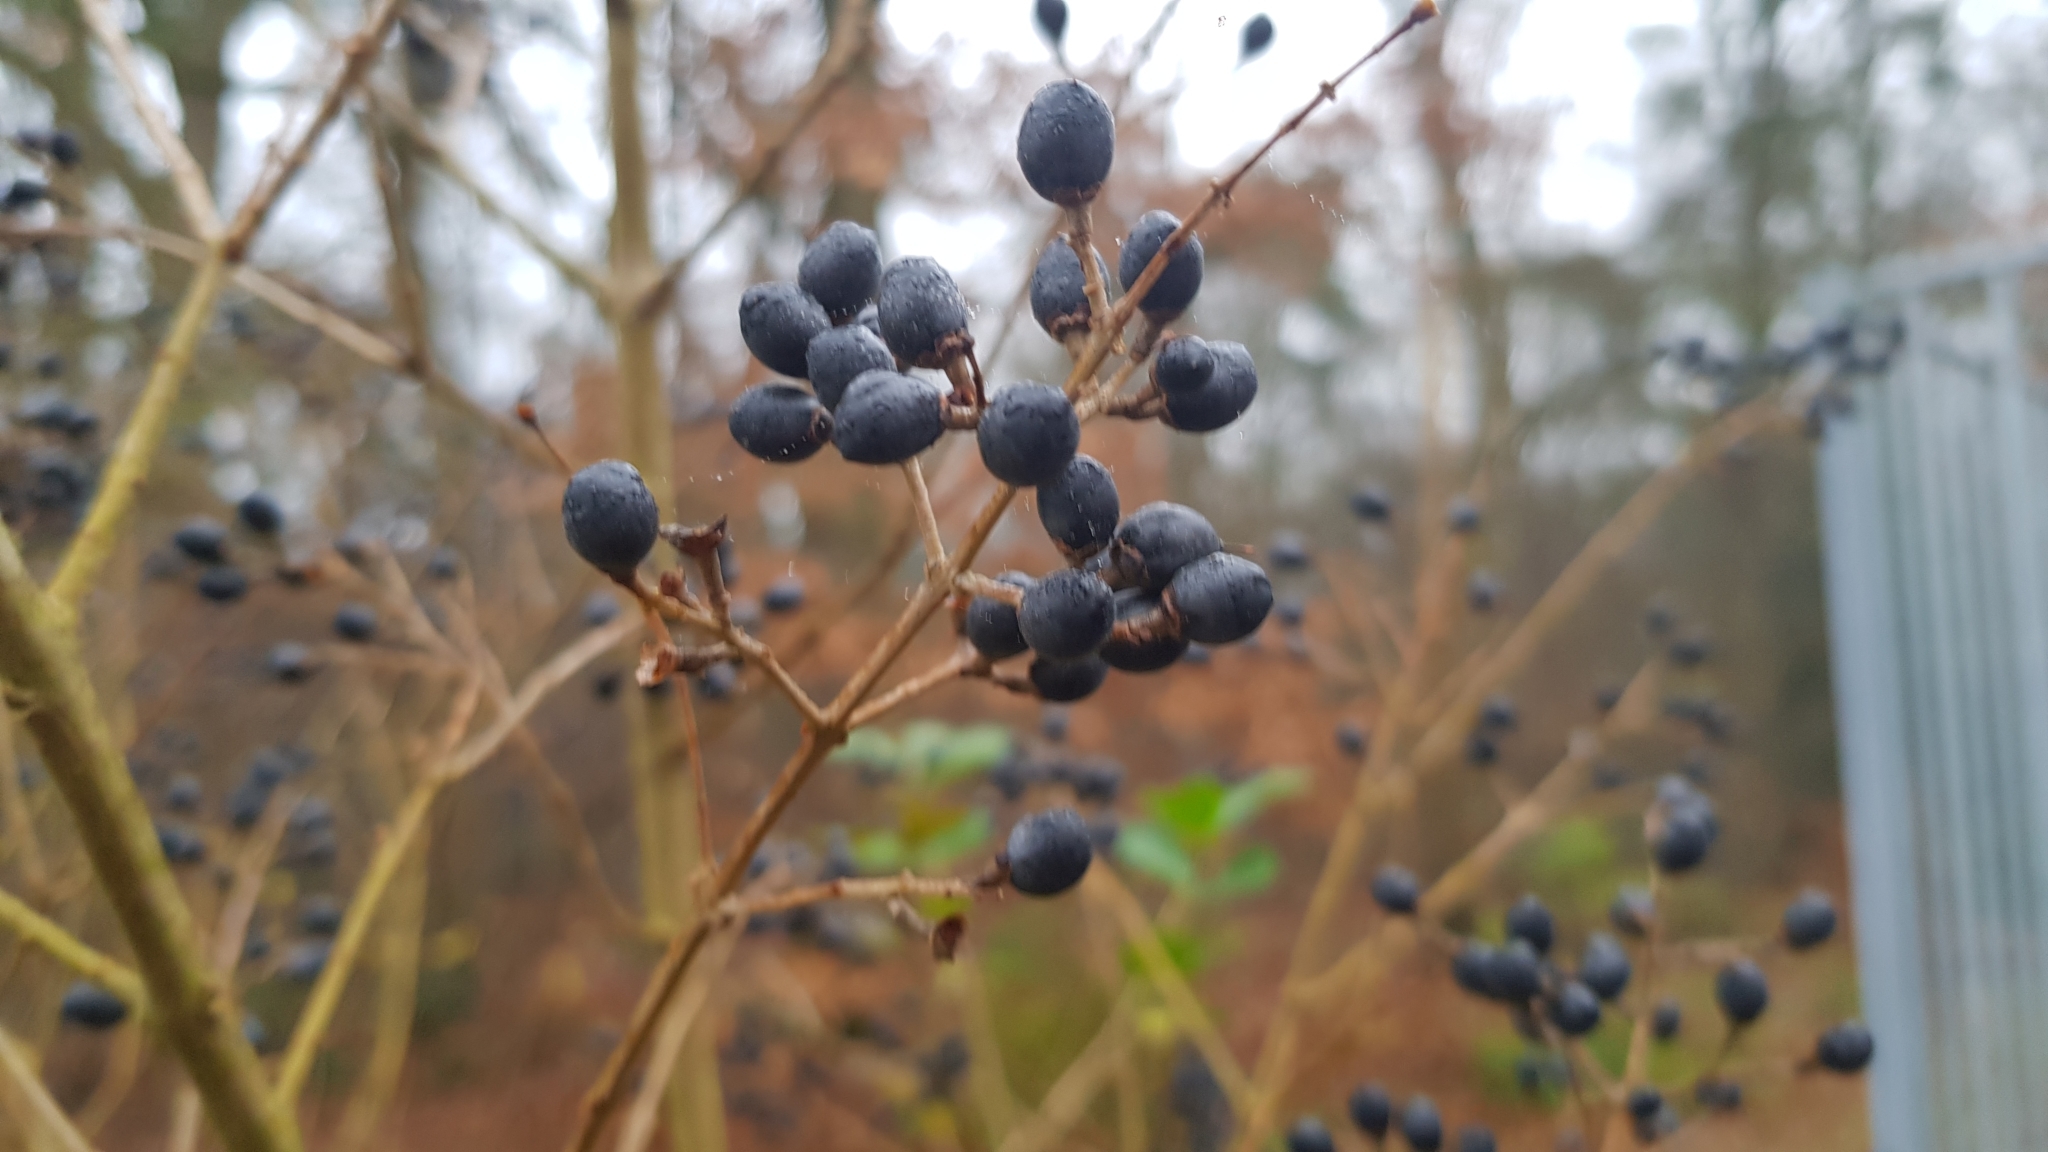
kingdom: Plantae
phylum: Tracheophyta
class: Magnoliopsida
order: Lamiales
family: Oleaceae
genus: Ligustrum
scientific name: Ligustrum vulgare
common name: Wild privet
